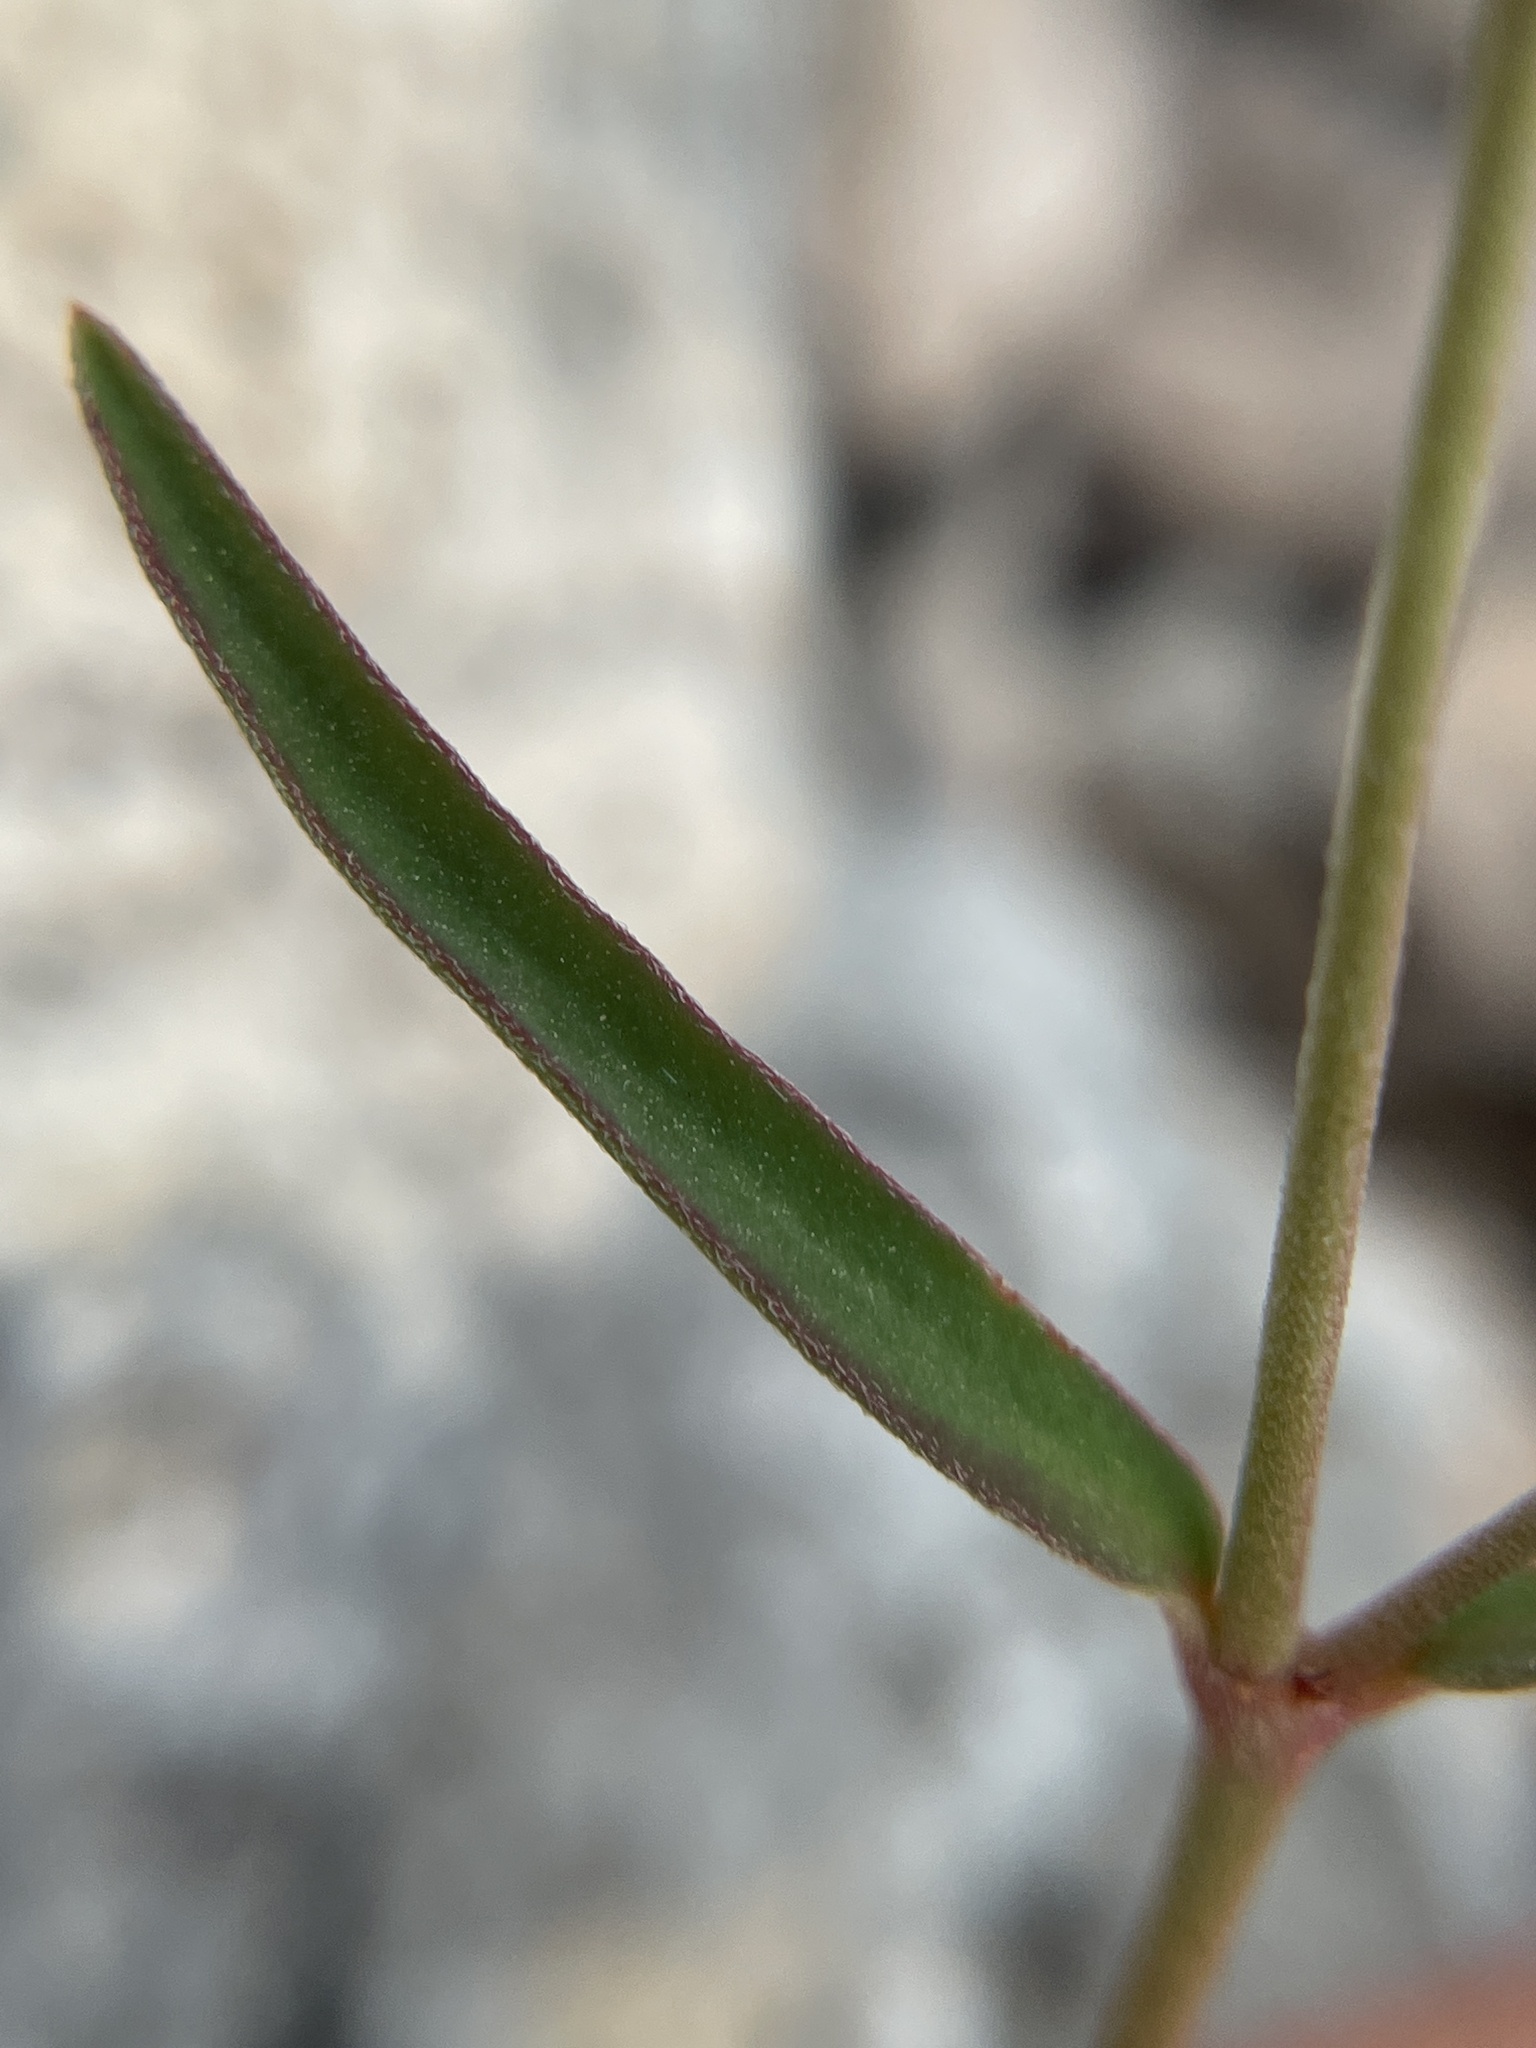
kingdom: Plantae
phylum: Tracheophyta
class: Magnoliopsida
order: Malpighiales
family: Euphorbiaceae
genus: Euphorbia
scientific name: Euphorbia angusta
